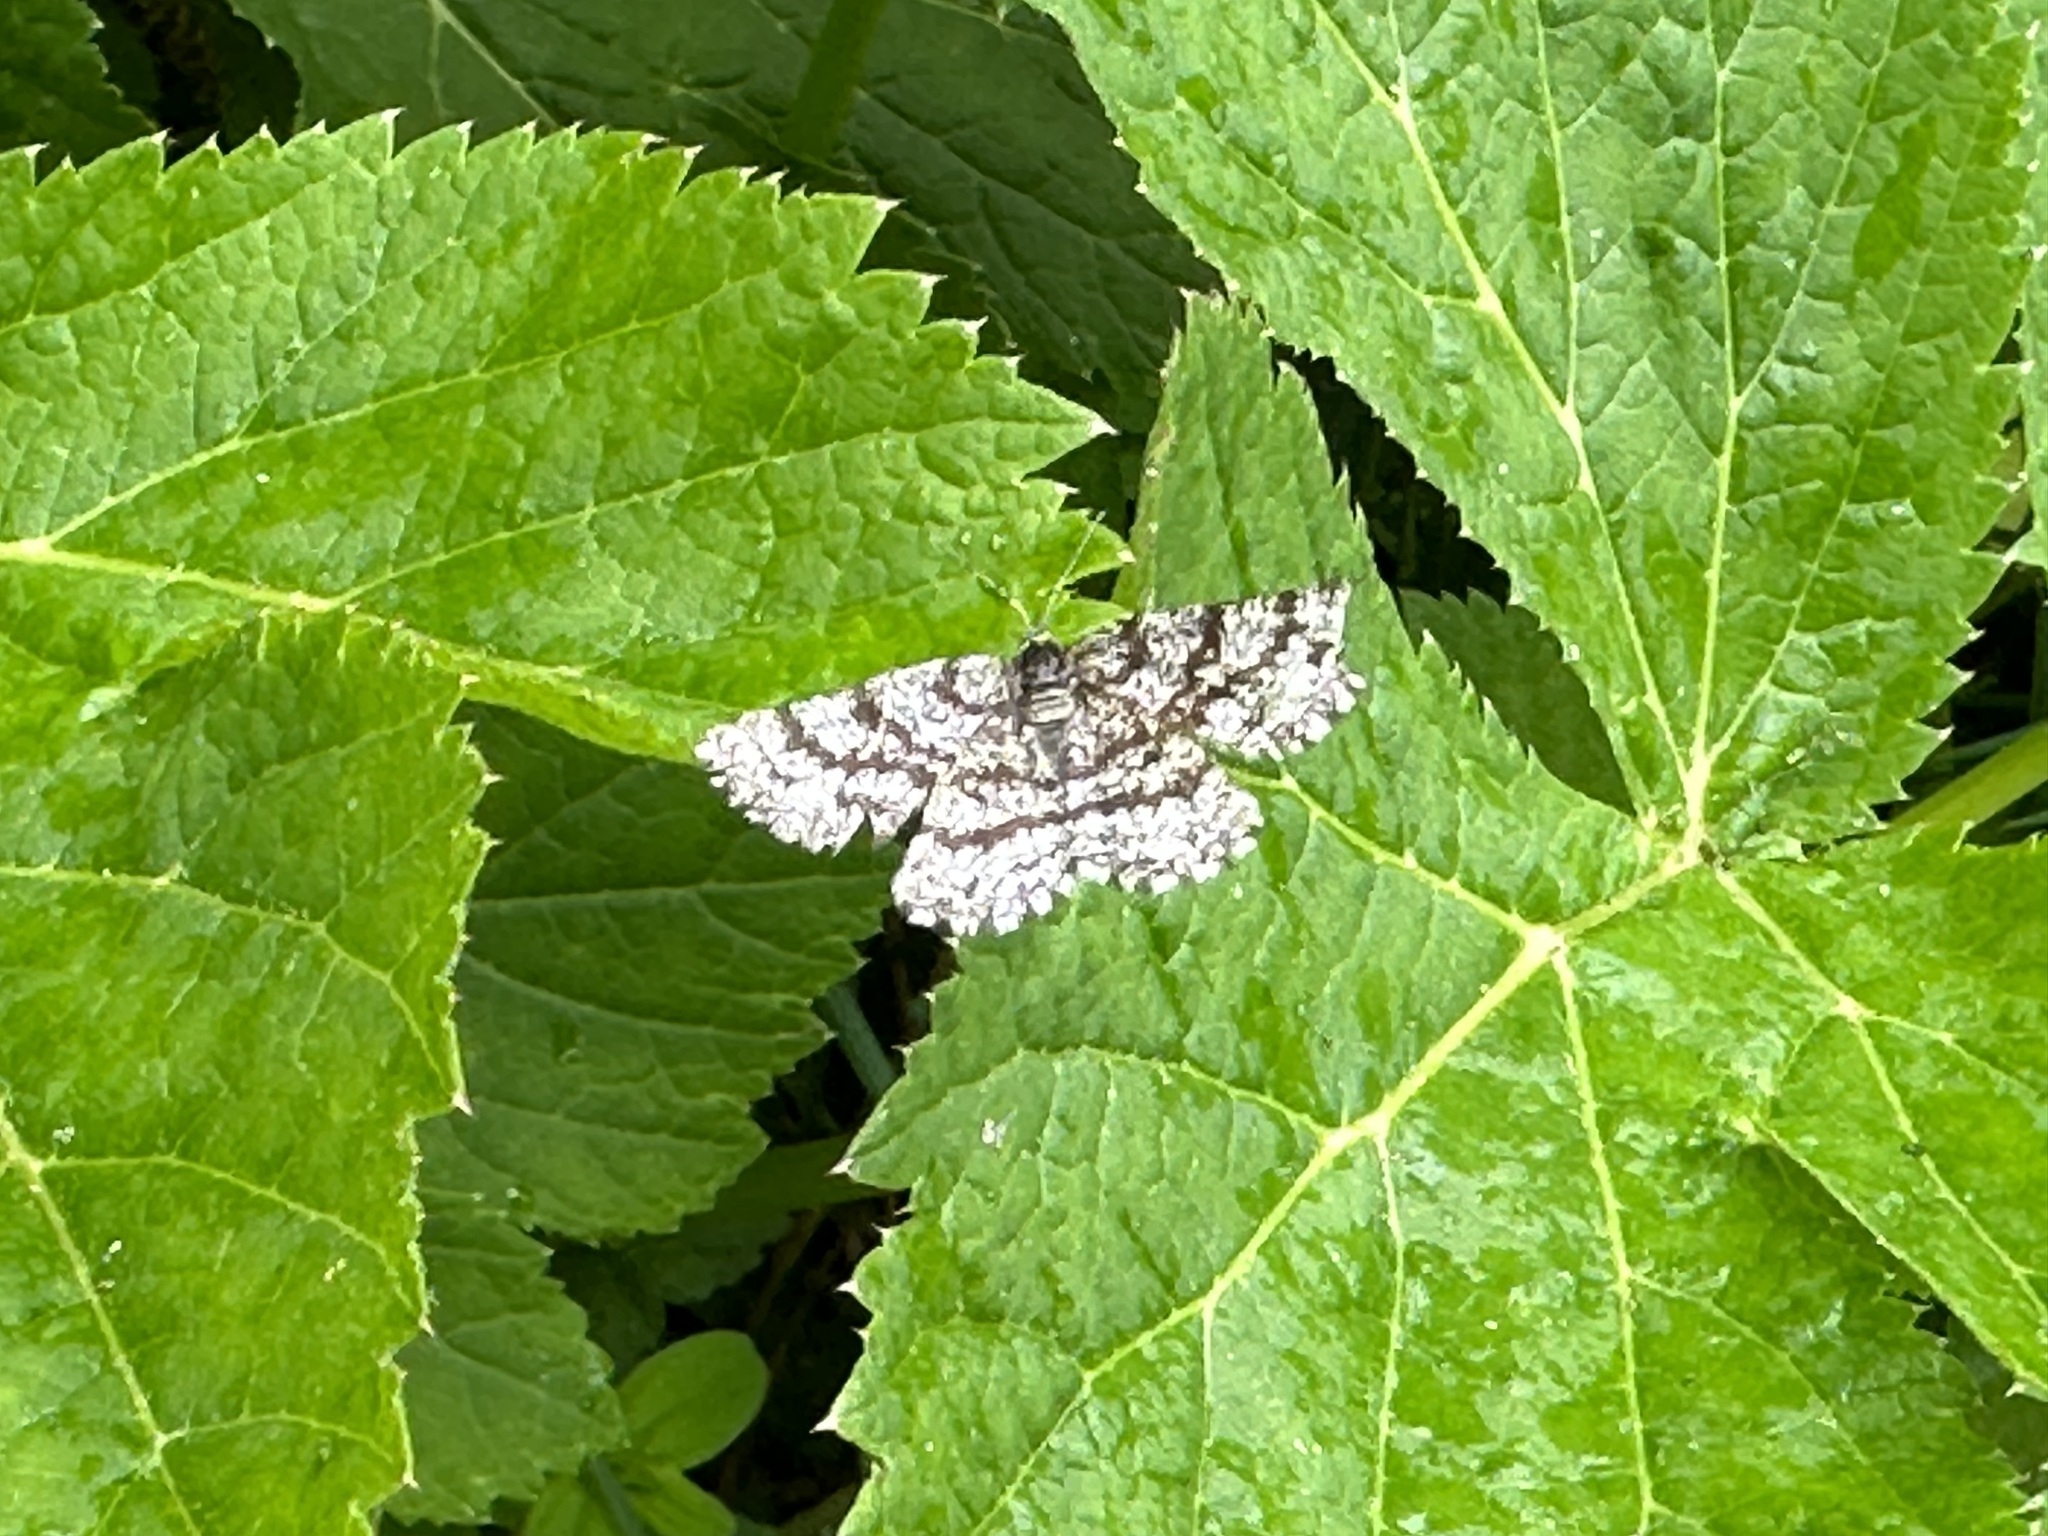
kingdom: Animalia
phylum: Arthropoda
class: Insecta
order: Lepidoptera
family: Geometridae
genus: Ematurga
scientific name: Ematurga atomaria
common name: Common heath
